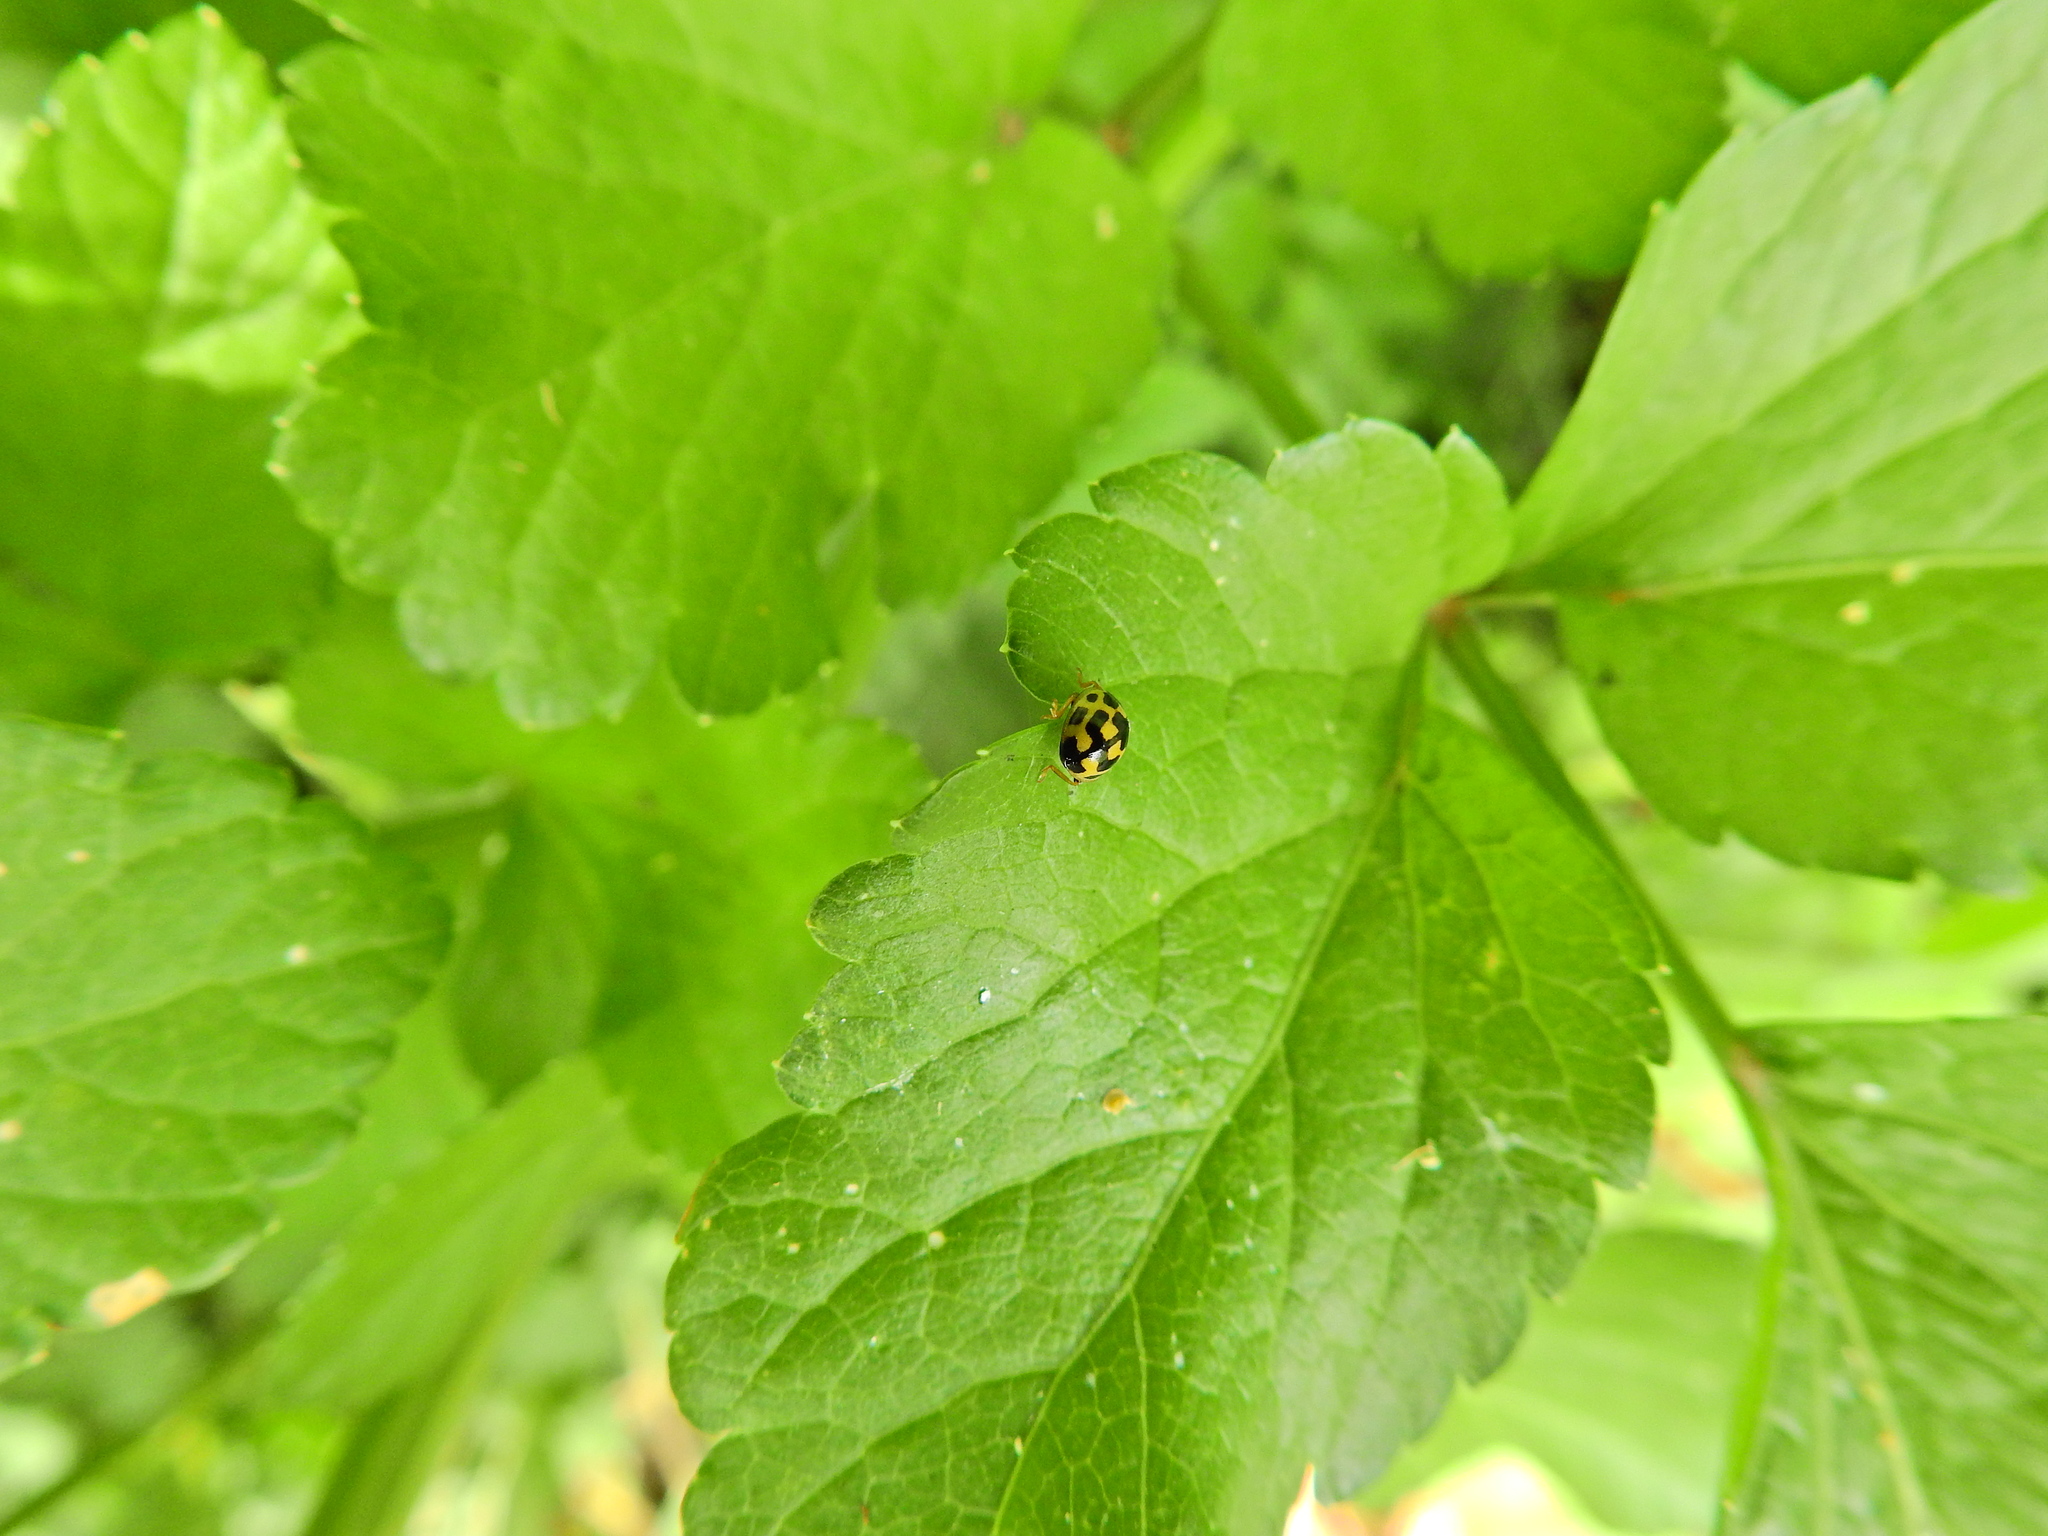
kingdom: Animalia
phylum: Arthropoda
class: Insecta
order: Coleoptera
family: Coccinellidae
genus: Propylaea
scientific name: Propylaea quatuordecimpunctata
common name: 14-spotted ladybird beetle
